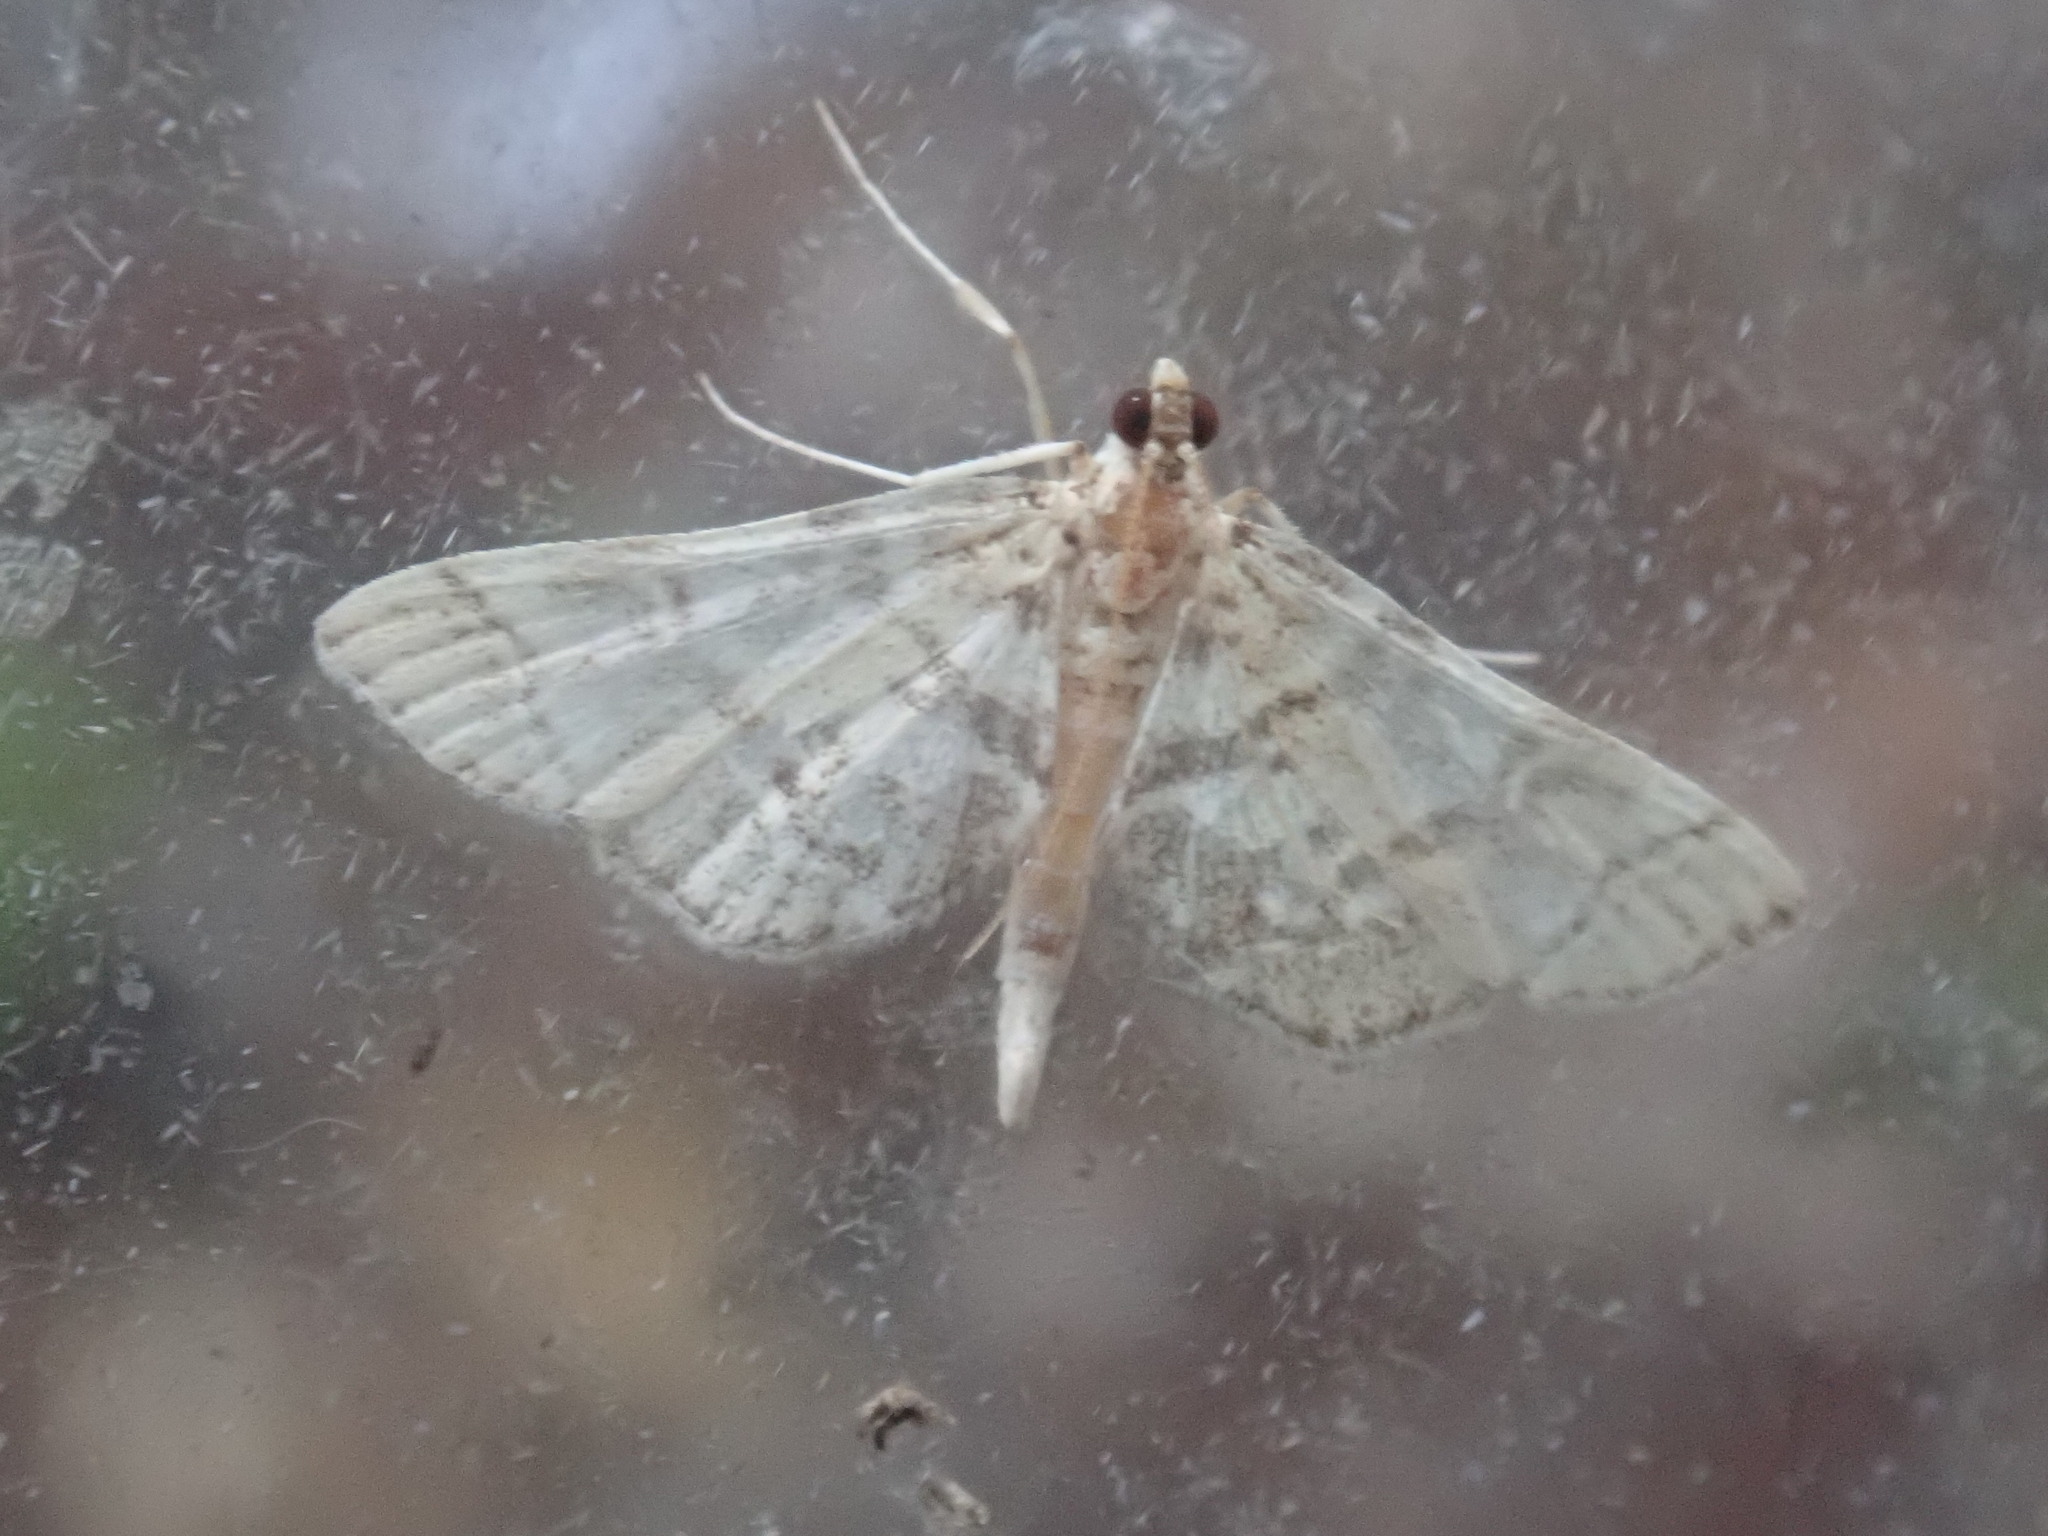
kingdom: Animalia
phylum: Arthropoda
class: Insecta
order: Lepidoptera
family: Crambidae
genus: Apogeshna
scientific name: Apogeshna stenialis
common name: Checkered apogeshna moth
